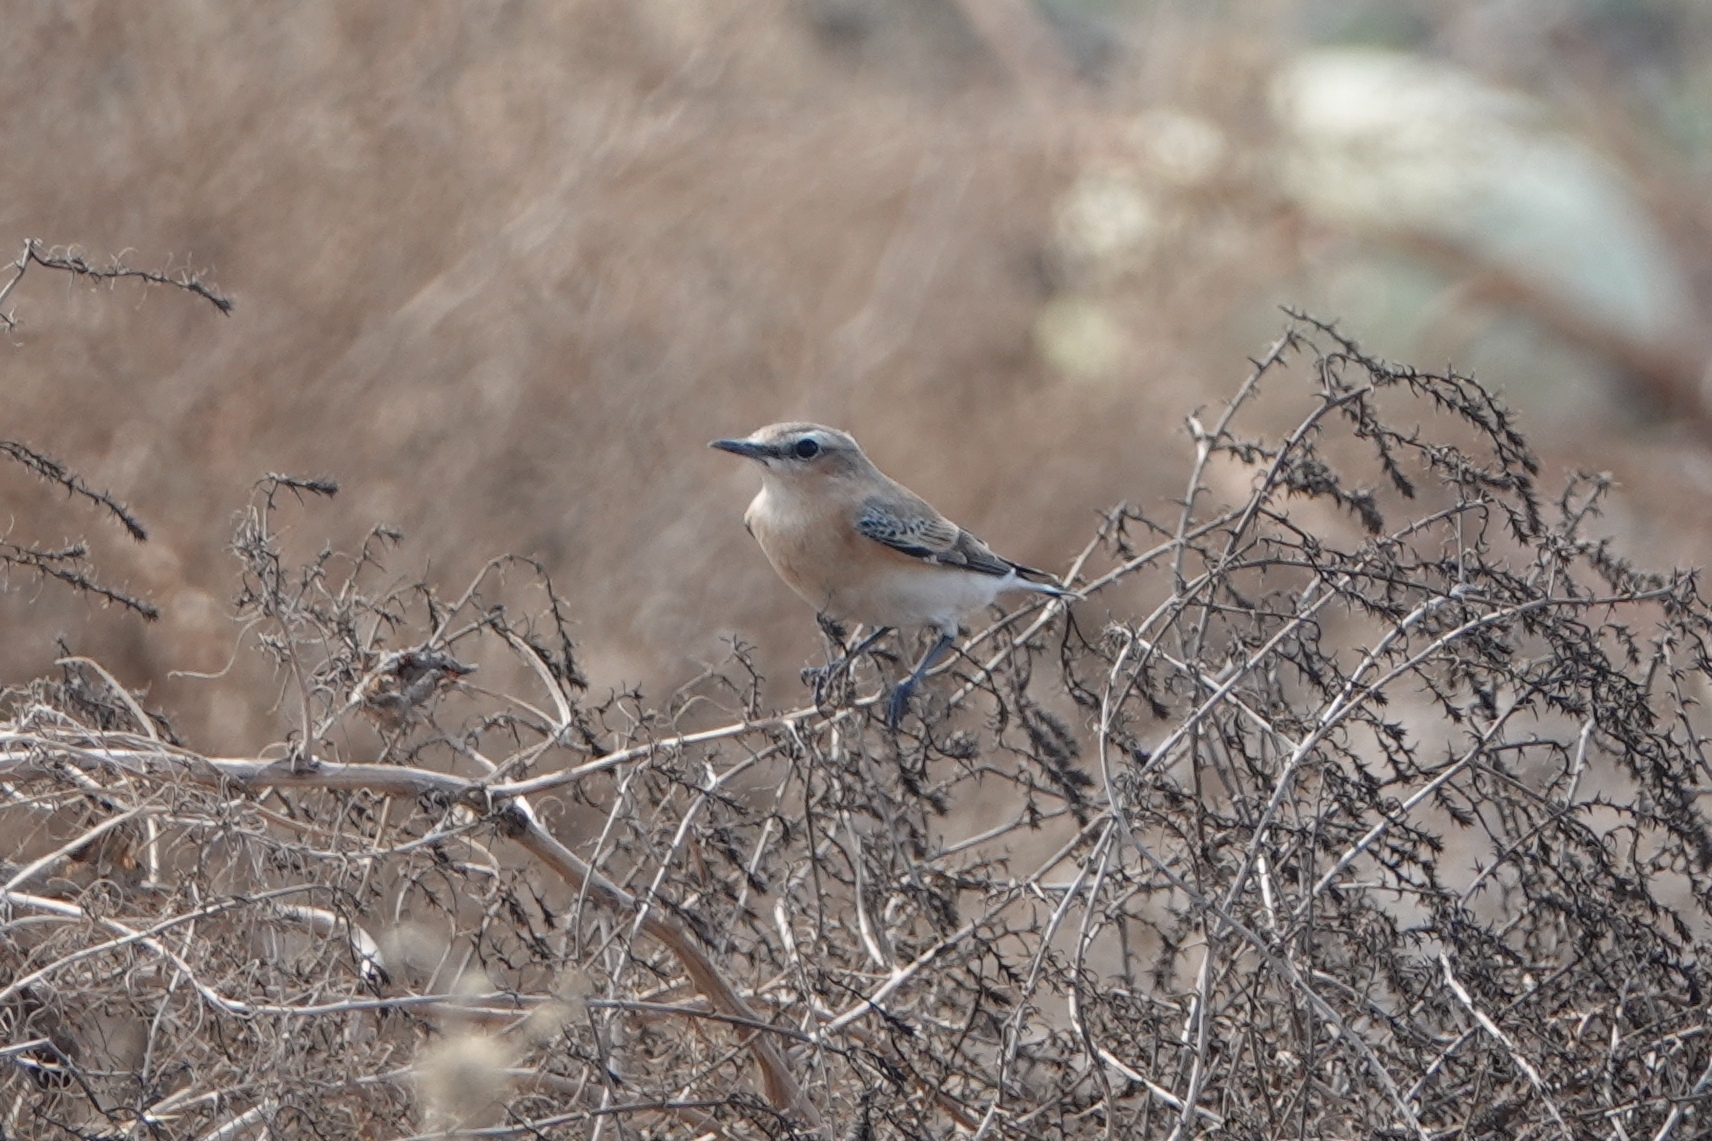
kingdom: Animalia
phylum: Chordata
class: Aves
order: Passeriformes
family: Muscicapidae
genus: Oenanthe
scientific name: Oenanthe oenanthe
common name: Northern wheatear
